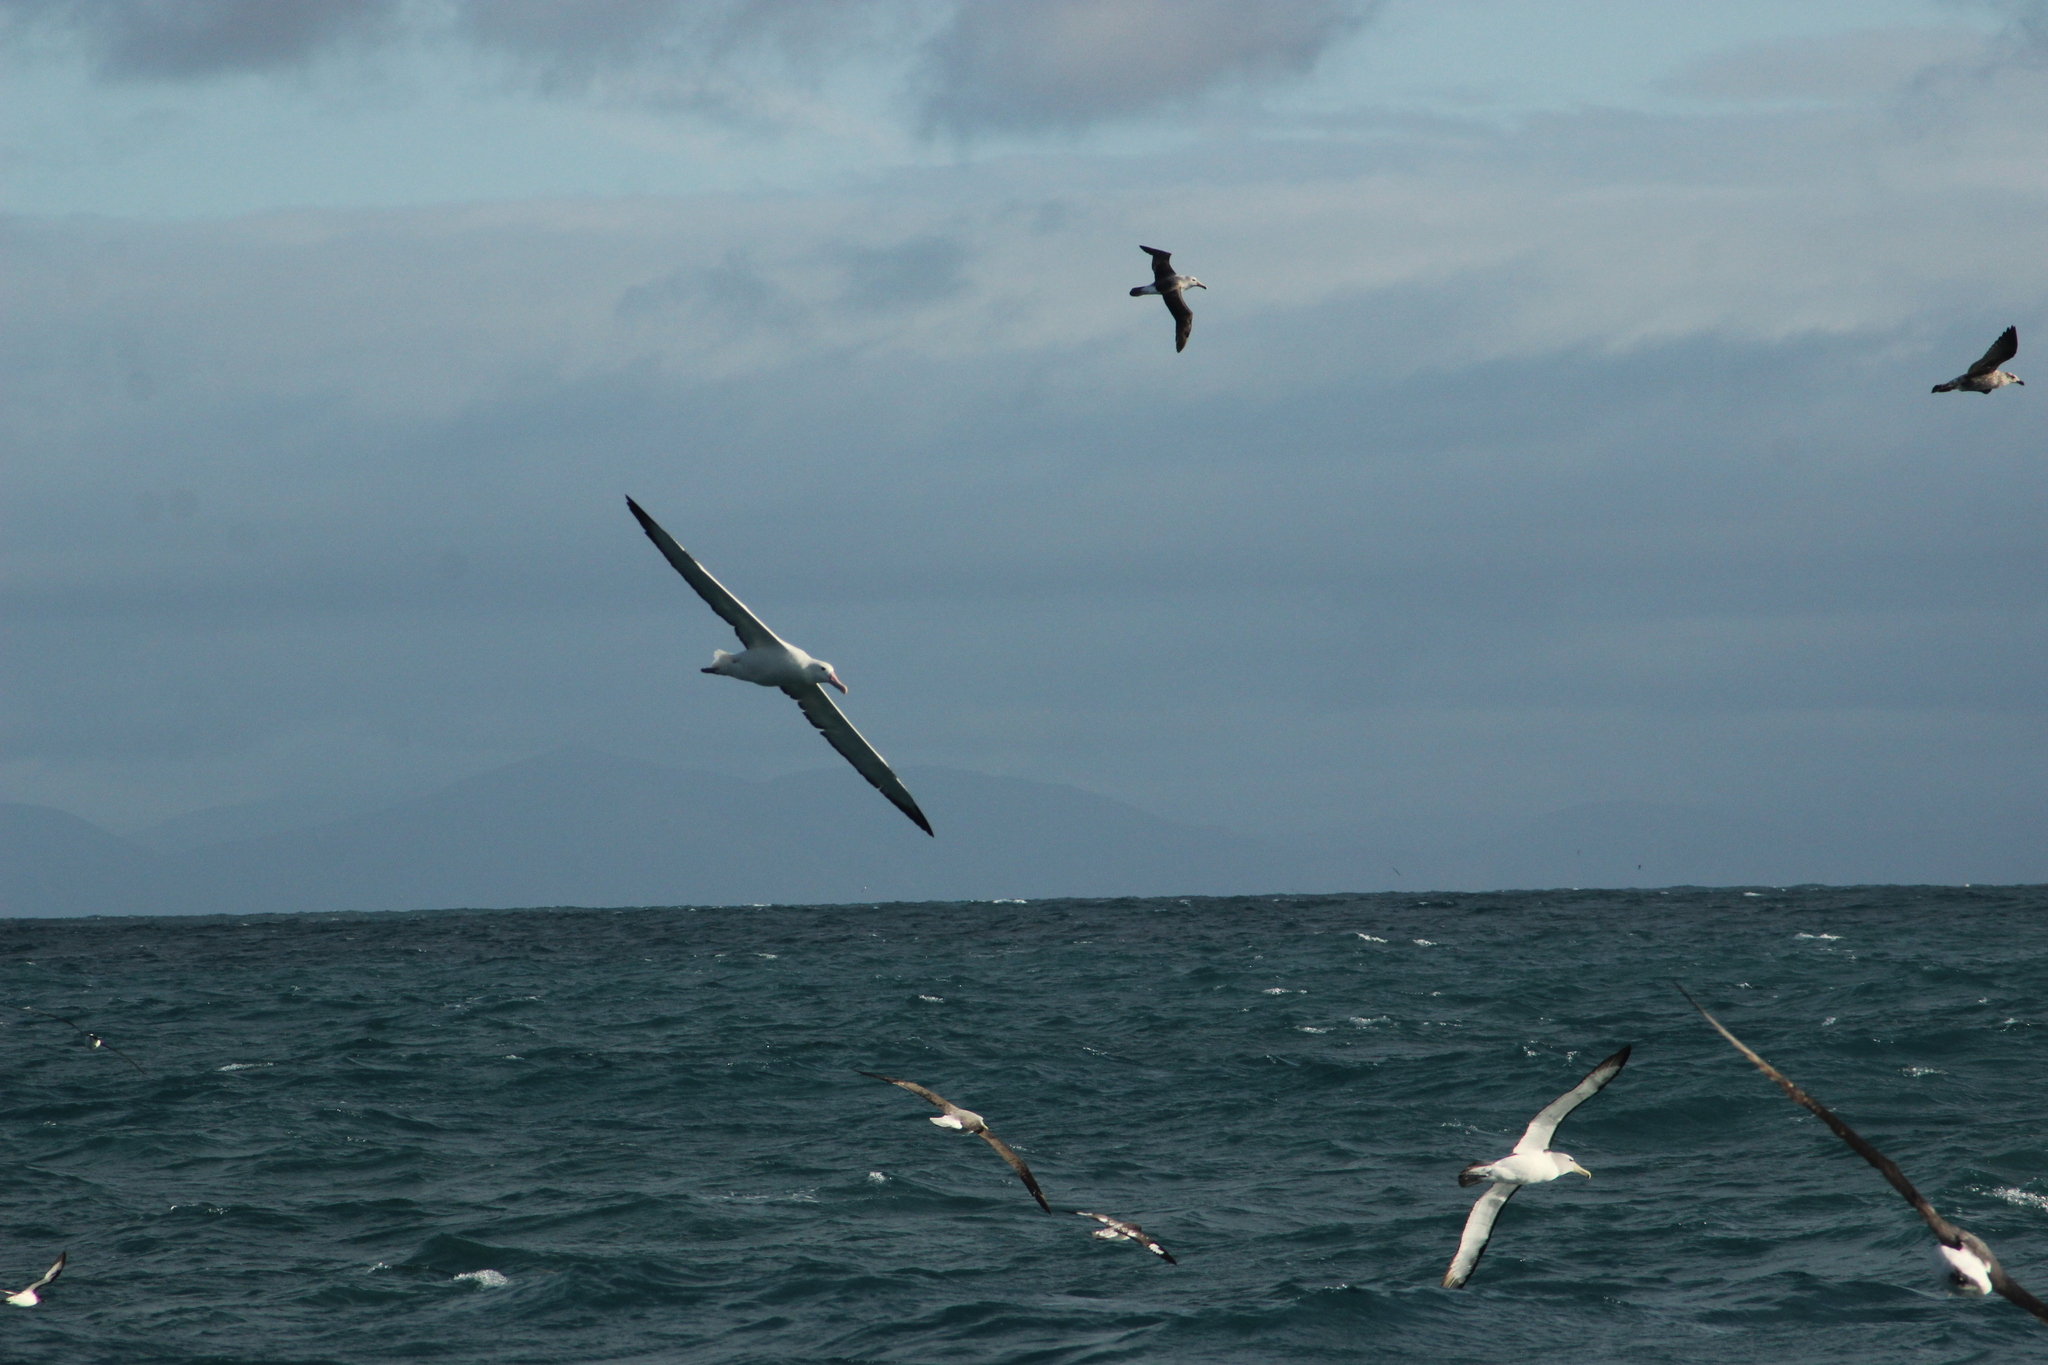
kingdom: Animalia
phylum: Chordata
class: Aves
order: Procellariiformes
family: Diomedeidae
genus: Diomedea
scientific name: Diomedea epomophora
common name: Southern royal albatross
